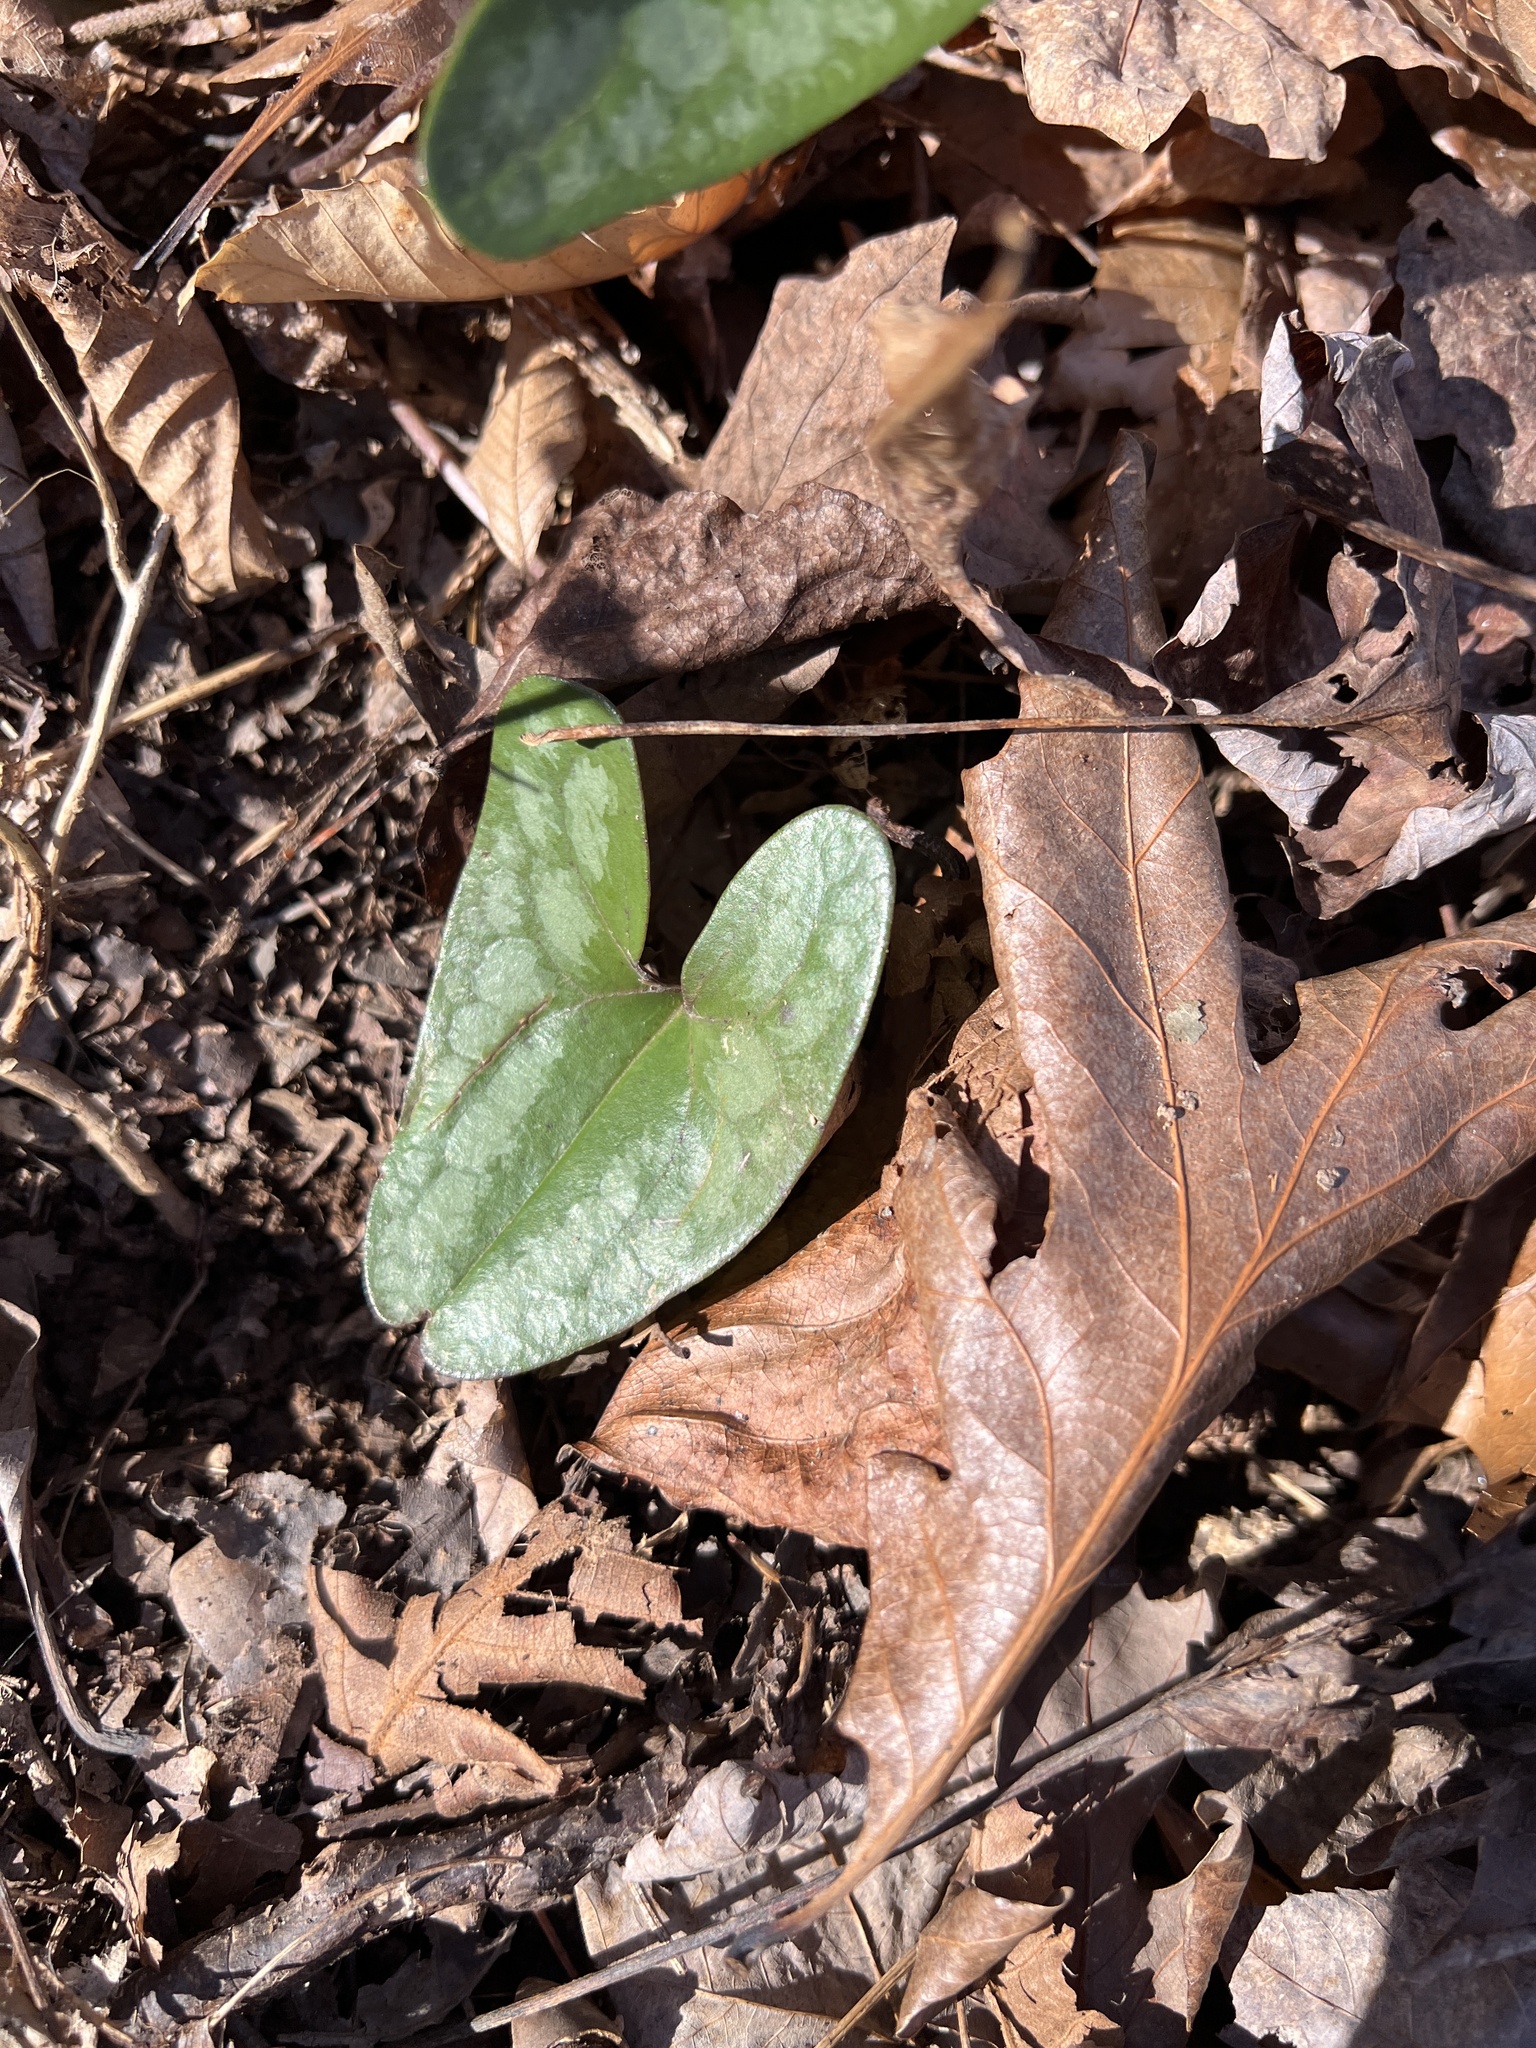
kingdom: Plantae
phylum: Tracheophyta
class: Magnoliopsida
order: Piperales
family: Aristolochiaceae
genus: Hexastylis
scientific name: Hexastylis arifolia
